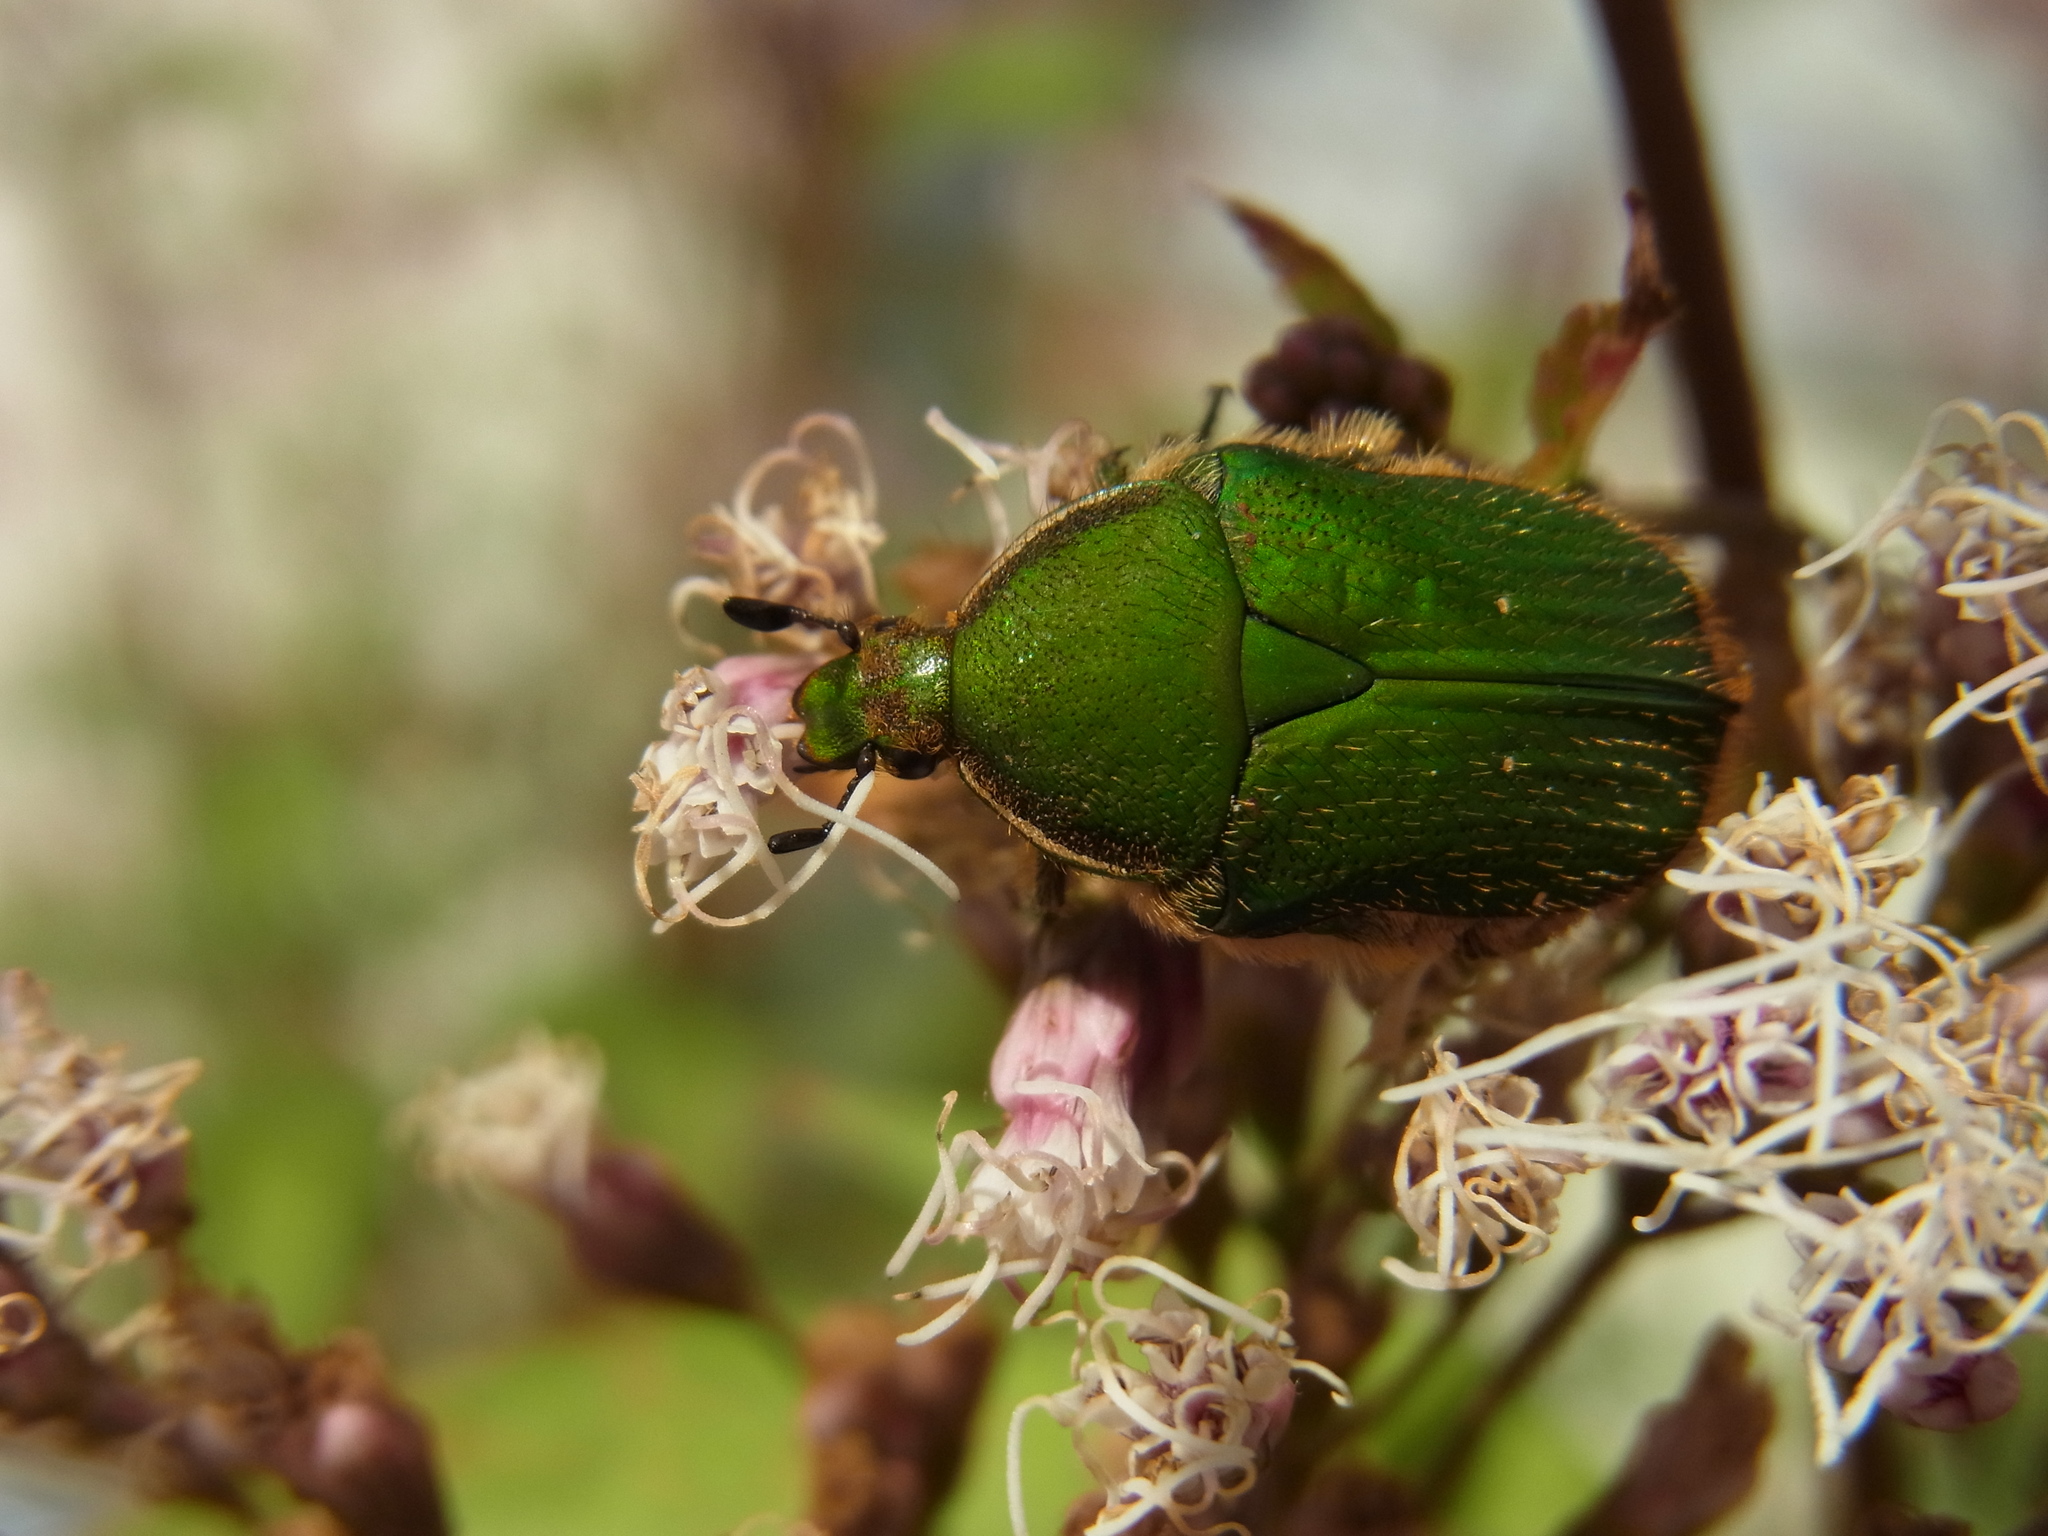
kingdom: Animalia
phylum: Arthropoda
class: Insecta
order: Coleoptera
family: Scarabaeidae
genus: Gametis
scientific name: Gametis forticula
